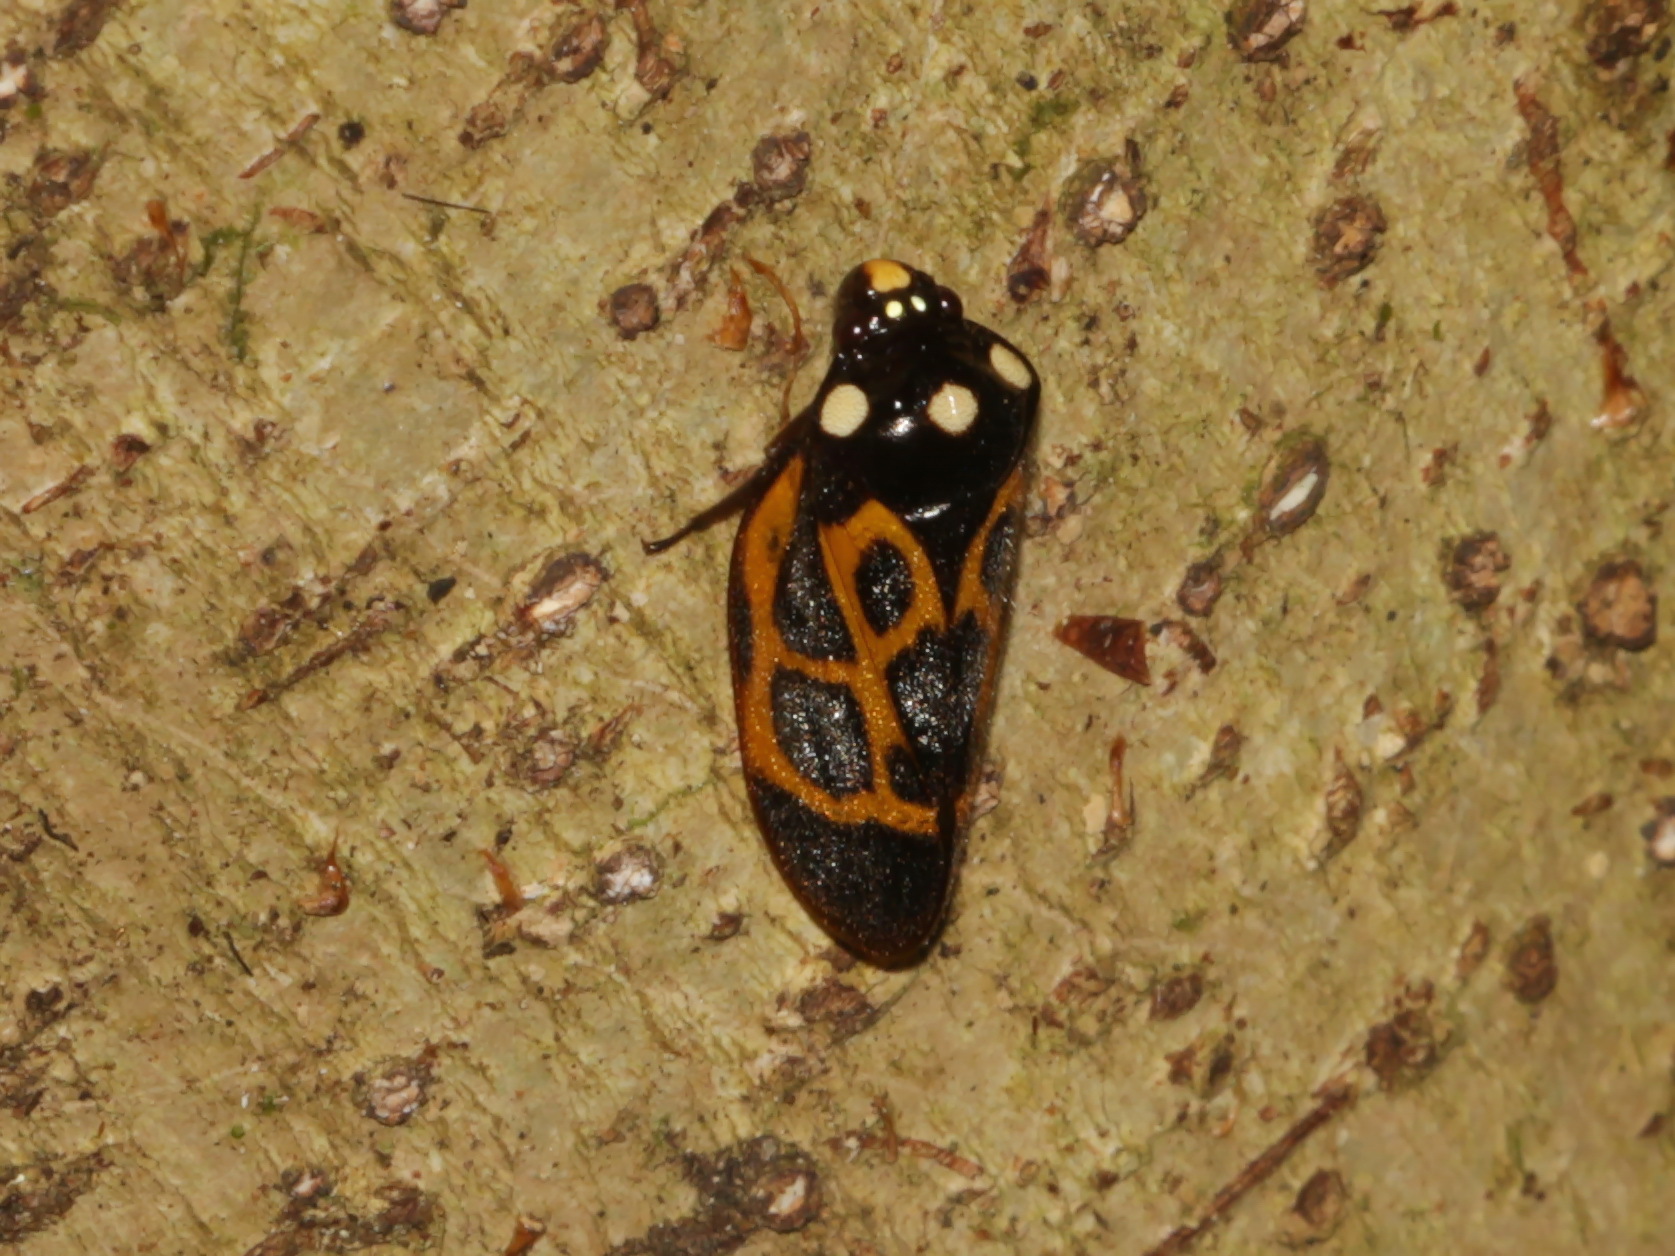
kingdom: Animalia
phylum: Arthropoda
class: Insecta
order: Hemiptera
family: Cercopidae
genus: Trichoscarta
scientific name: Trichoscarta chersonesia
